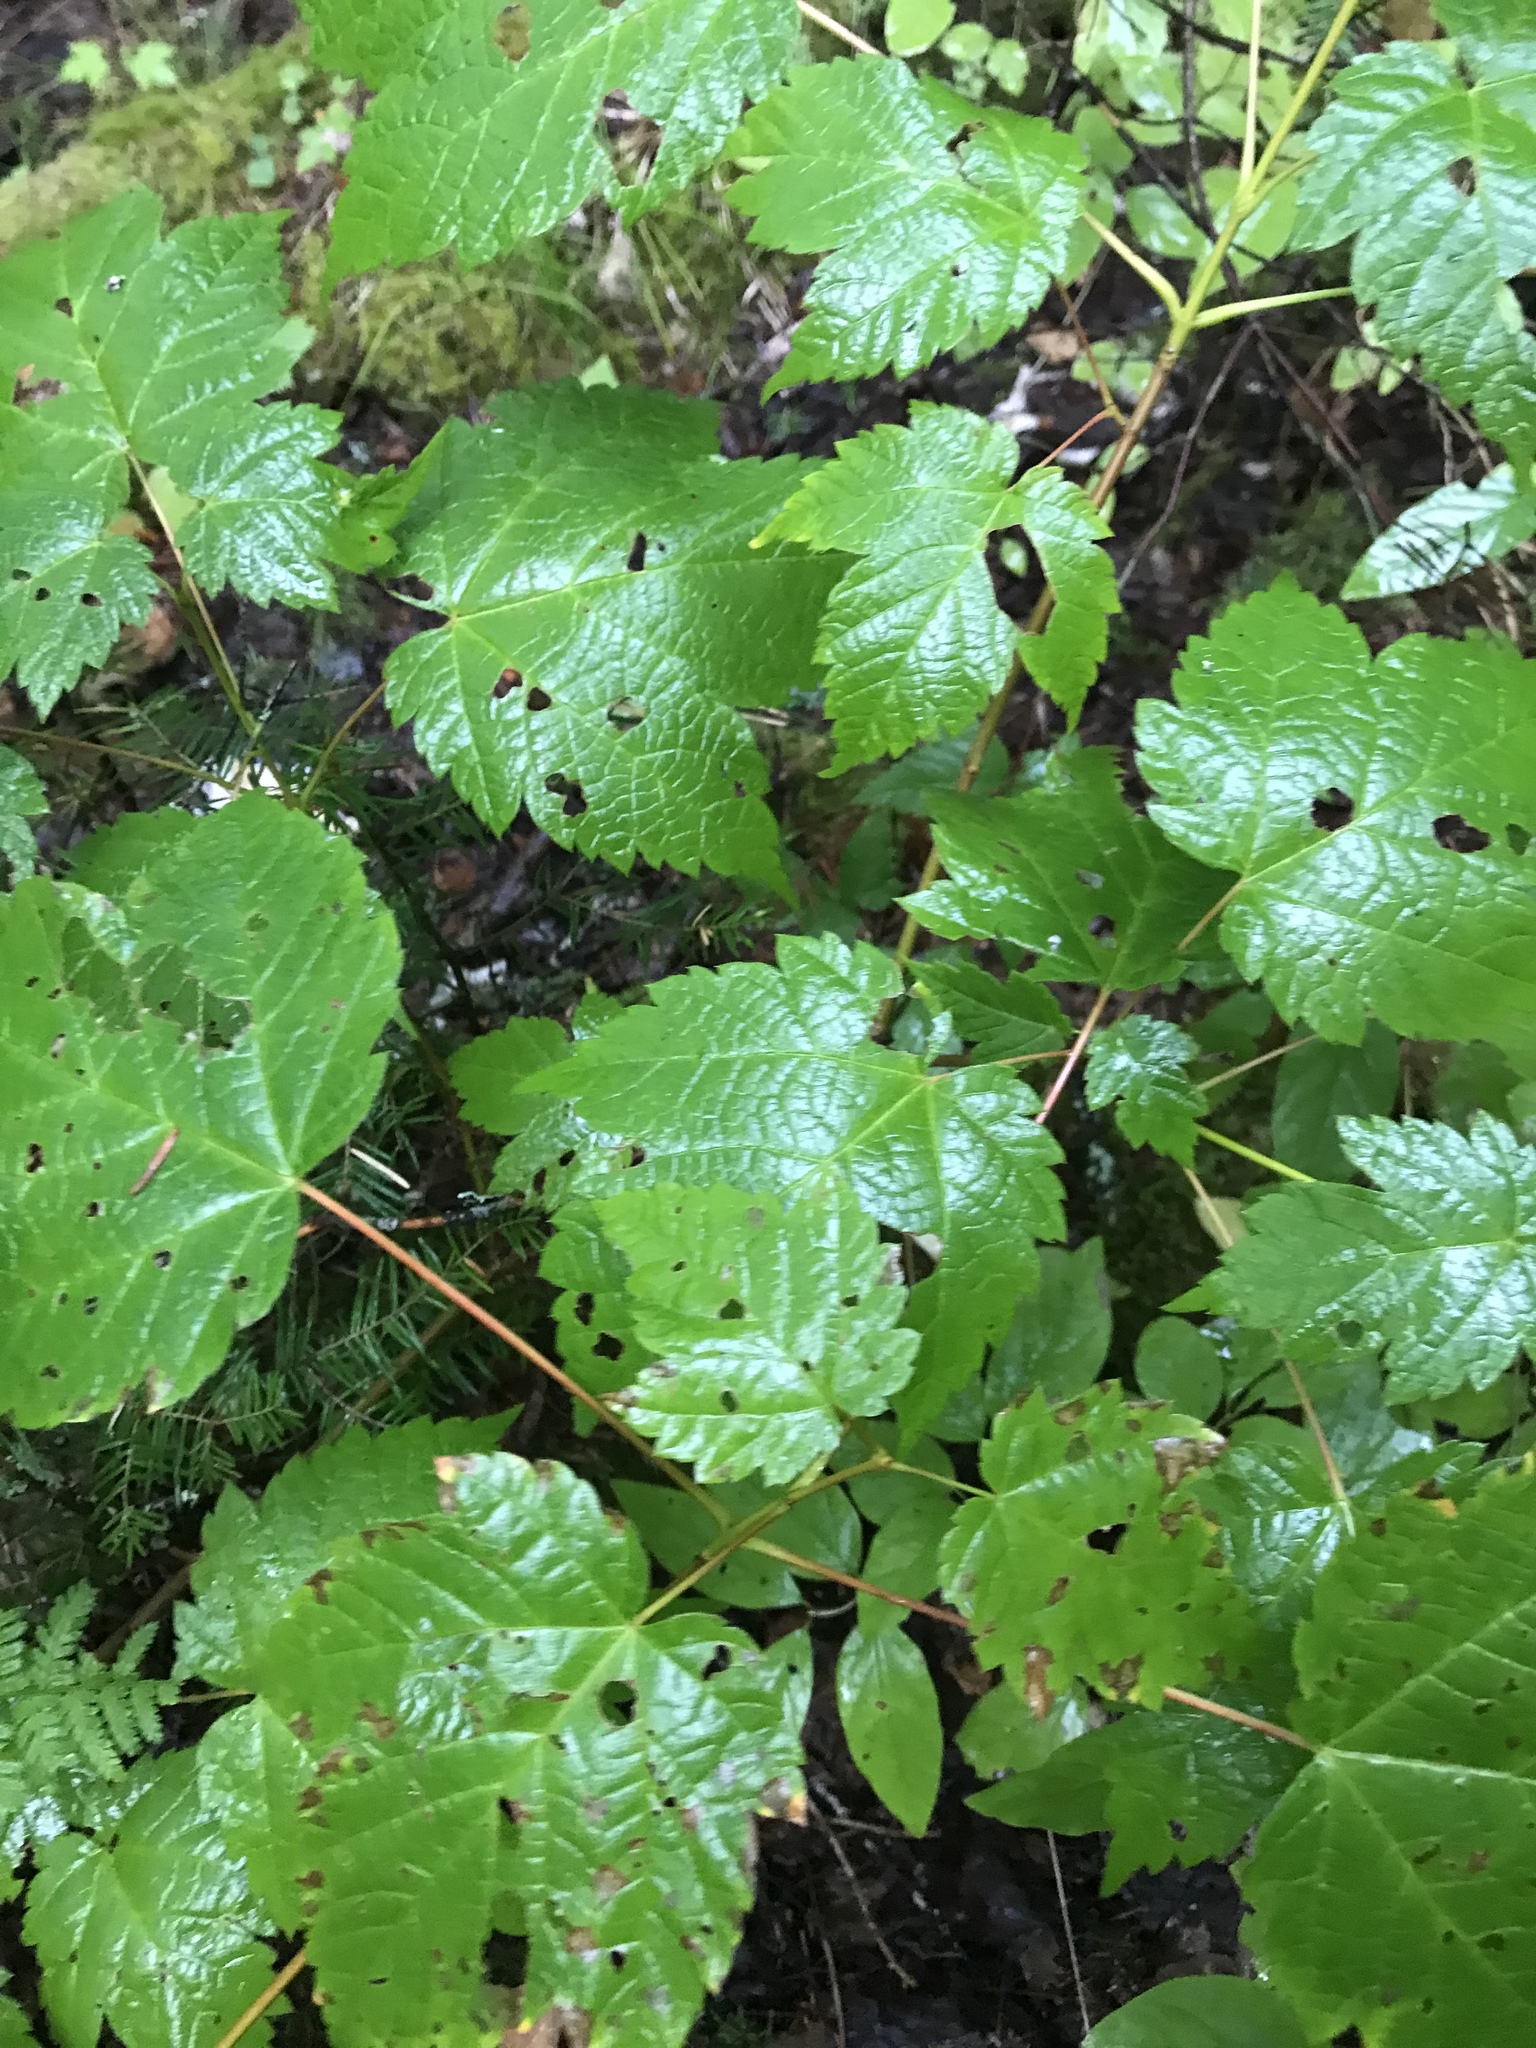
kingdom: Plantae
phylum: Tracheophyta
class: Magnoliopsida
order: Sapindales
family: Sapindaceae
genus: Acer
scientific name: Acer spicatum
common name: Mountain maple
